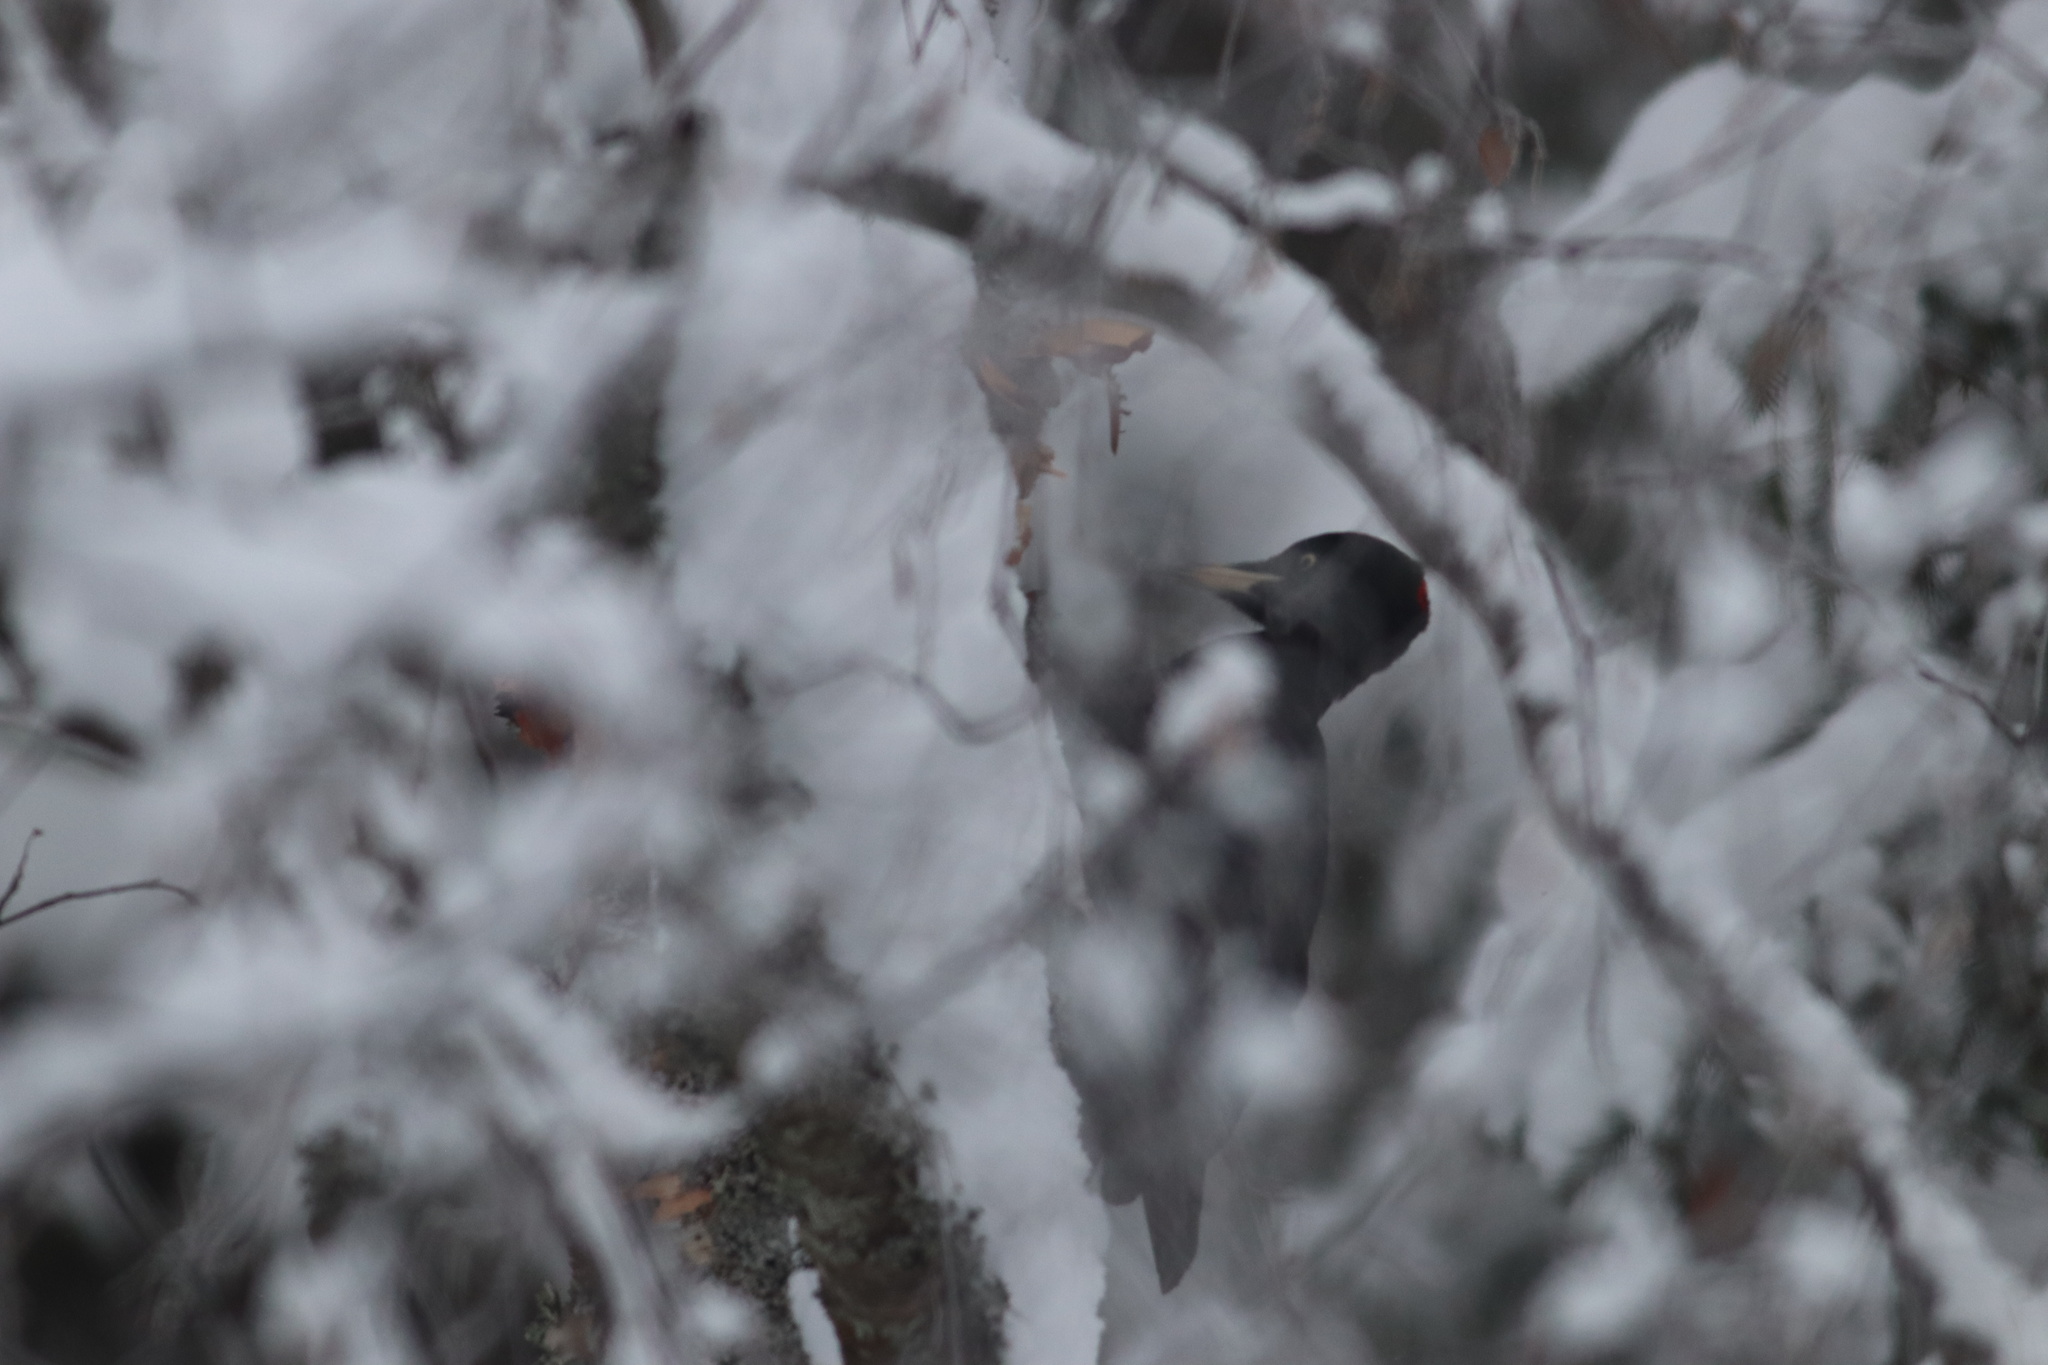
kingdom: Animalia
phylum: Chordata
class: Aves
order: Piciformes
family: Picidae
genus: Dryocopus
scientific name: Dryocopus martius
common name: Black woodpecker
